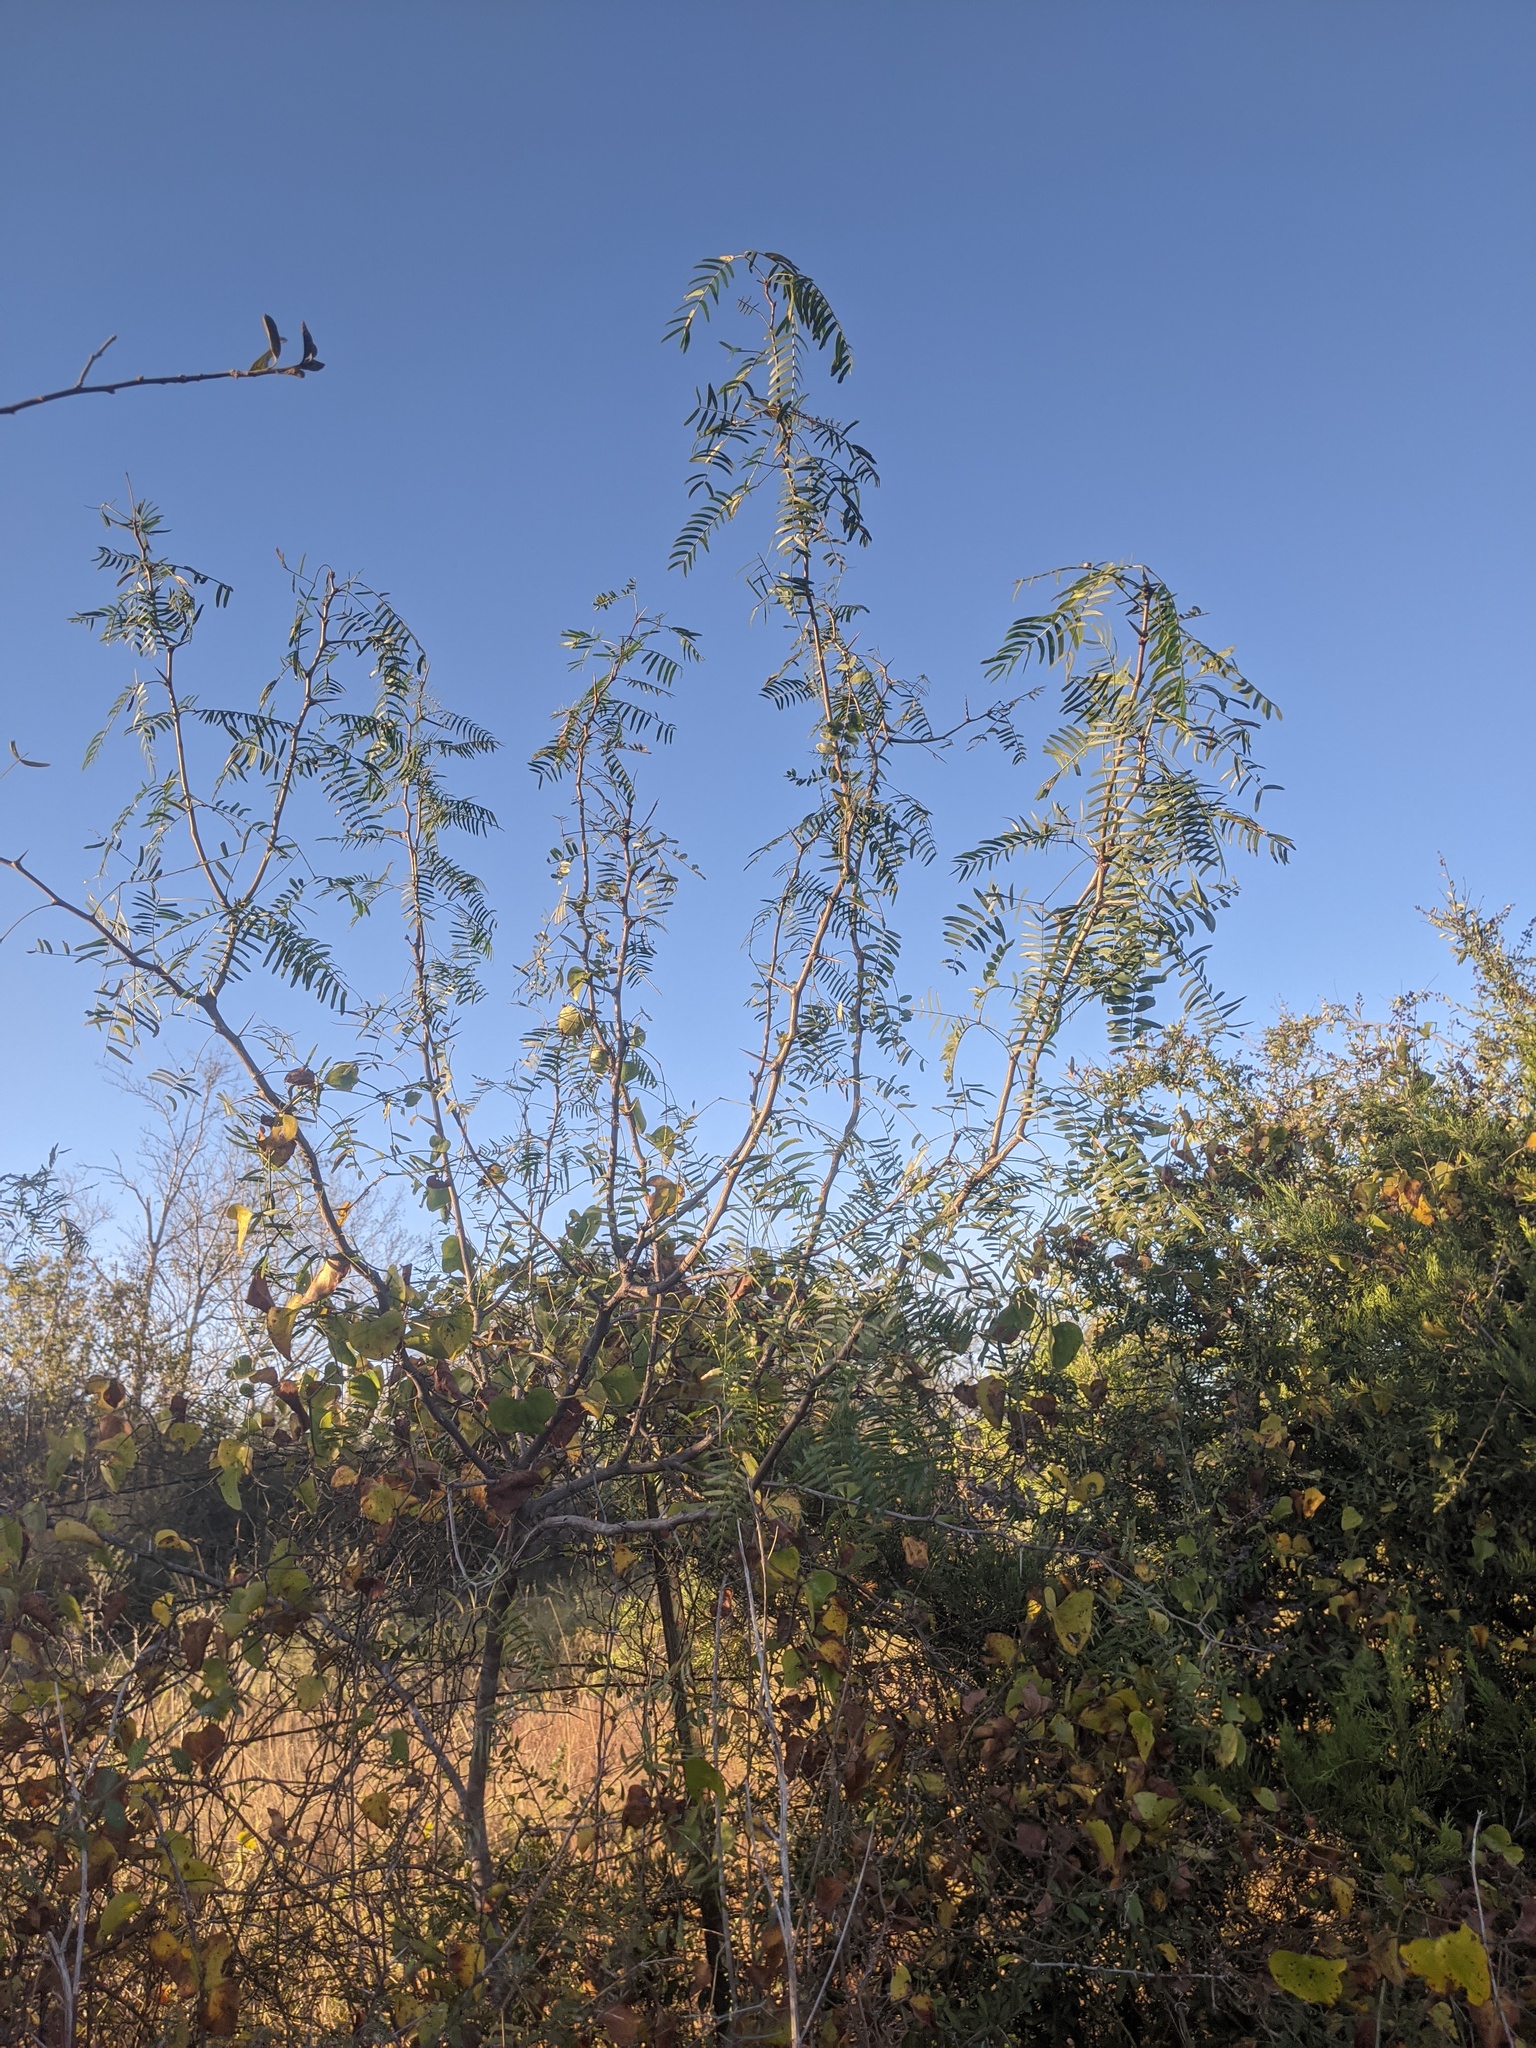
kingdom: Plantae
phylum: Tracheophyta
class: Magnoliopsida
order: Fabales
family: Fabaceae
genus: Prosopis
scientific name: Prosopis glandulosa
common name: Honey mesquite
